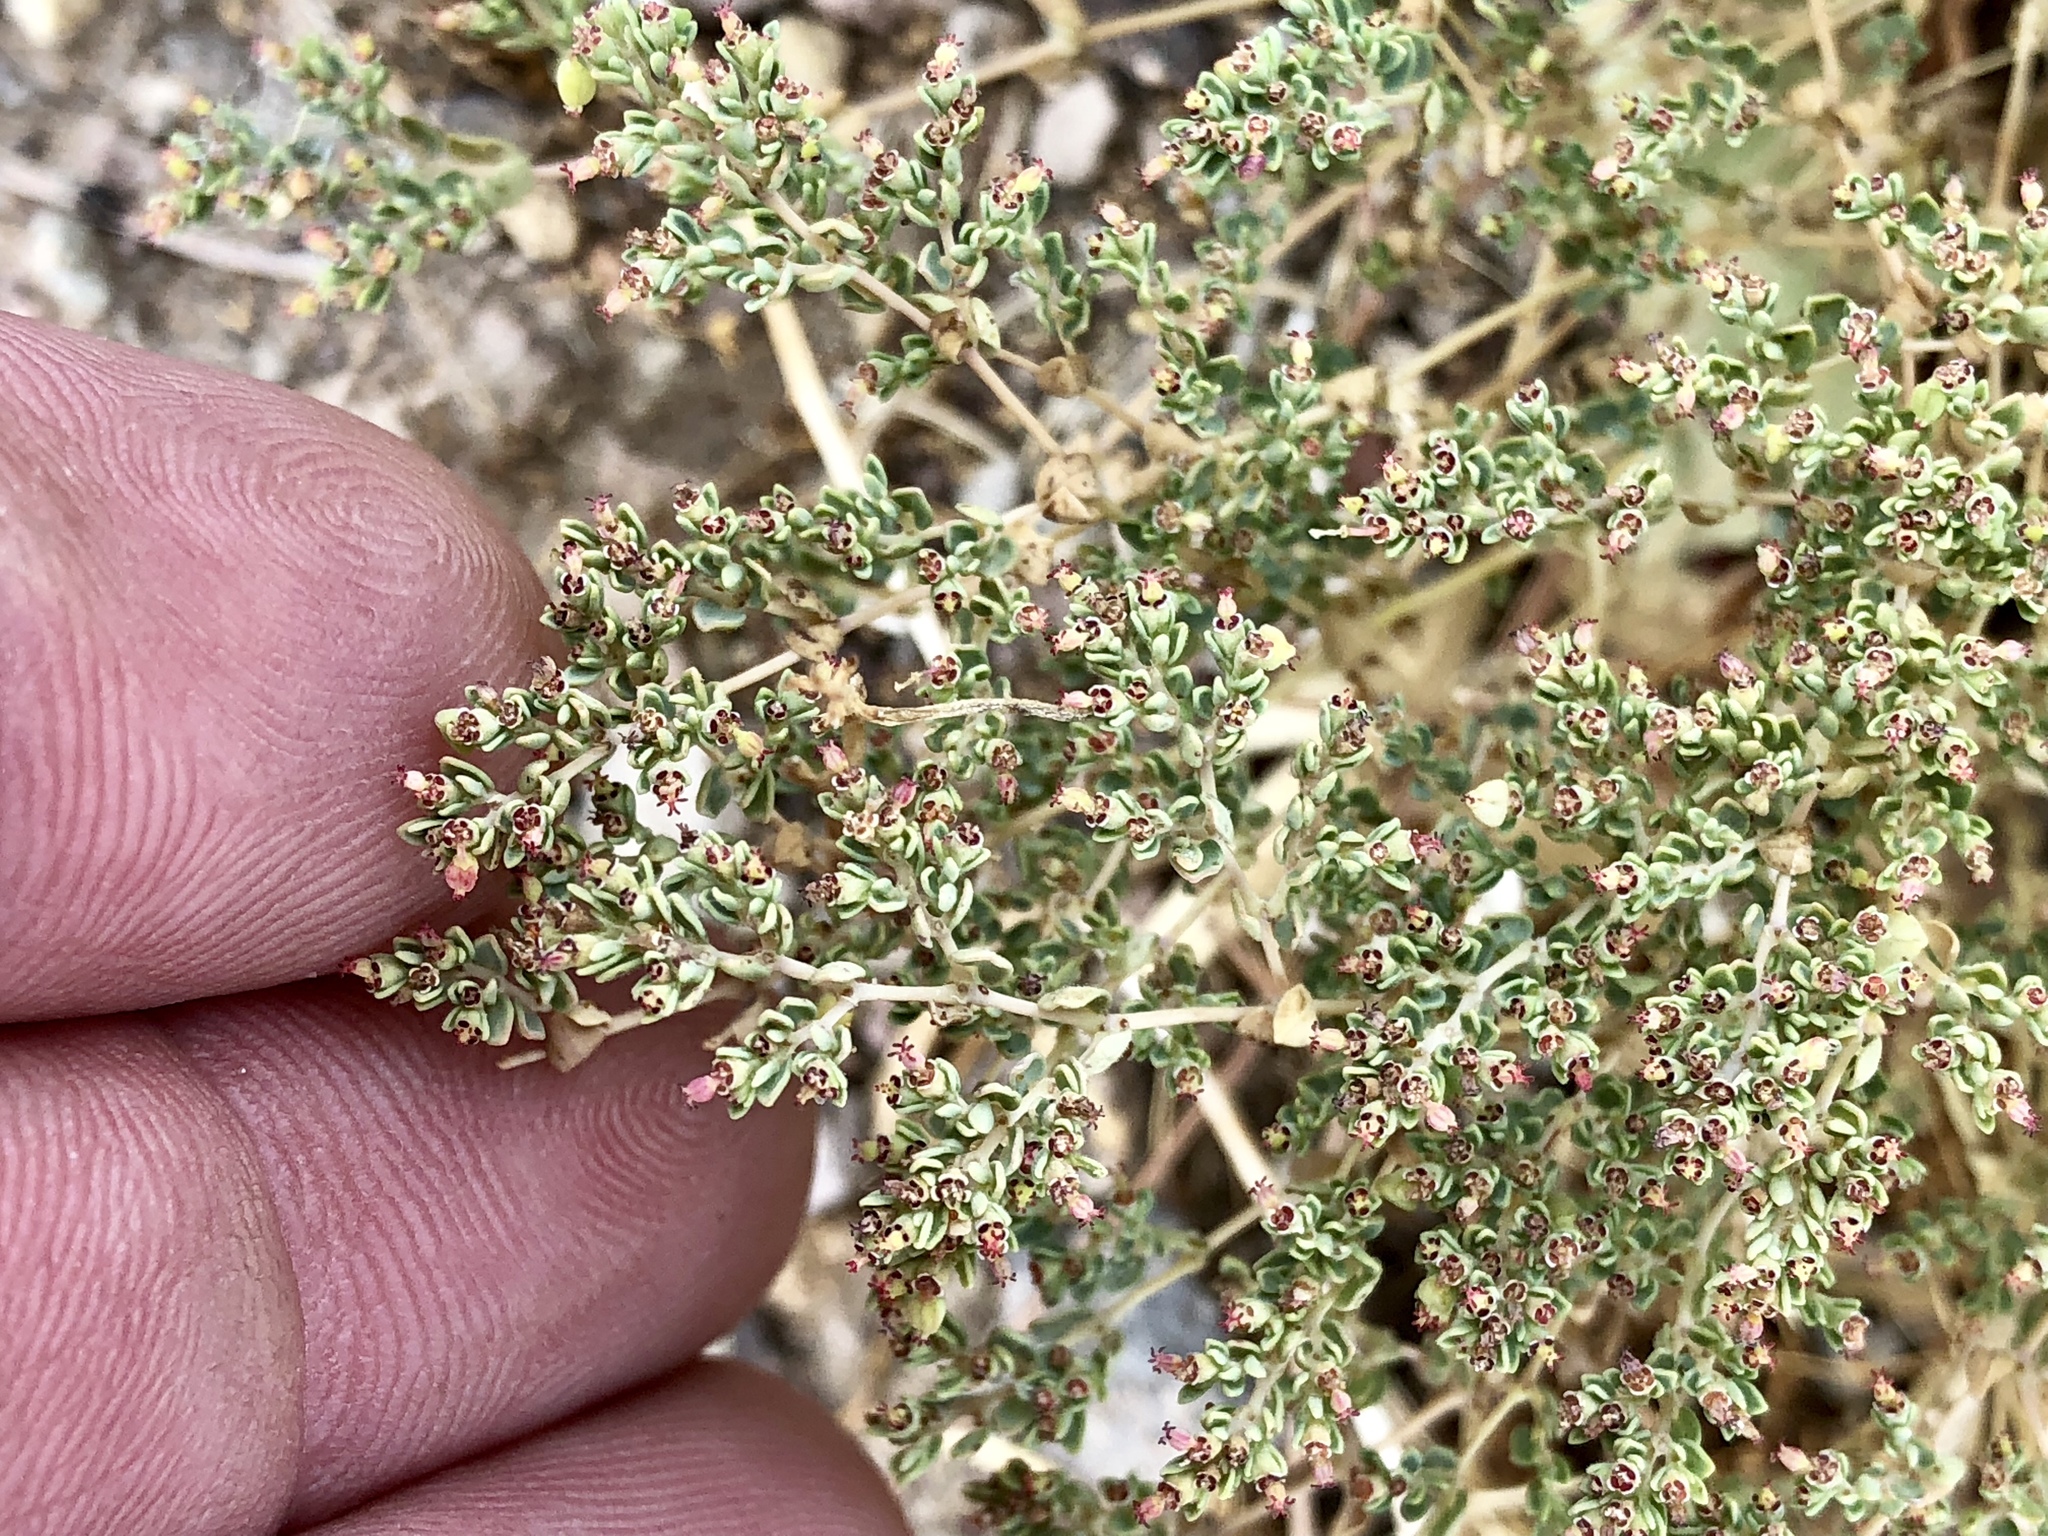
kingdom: Plantae
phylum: Tracheophyta
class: Magnoliopsida
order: Malpighiales
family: Euphorbiaceae
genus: Euphorbia
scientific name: Euphorbia polycarpa
